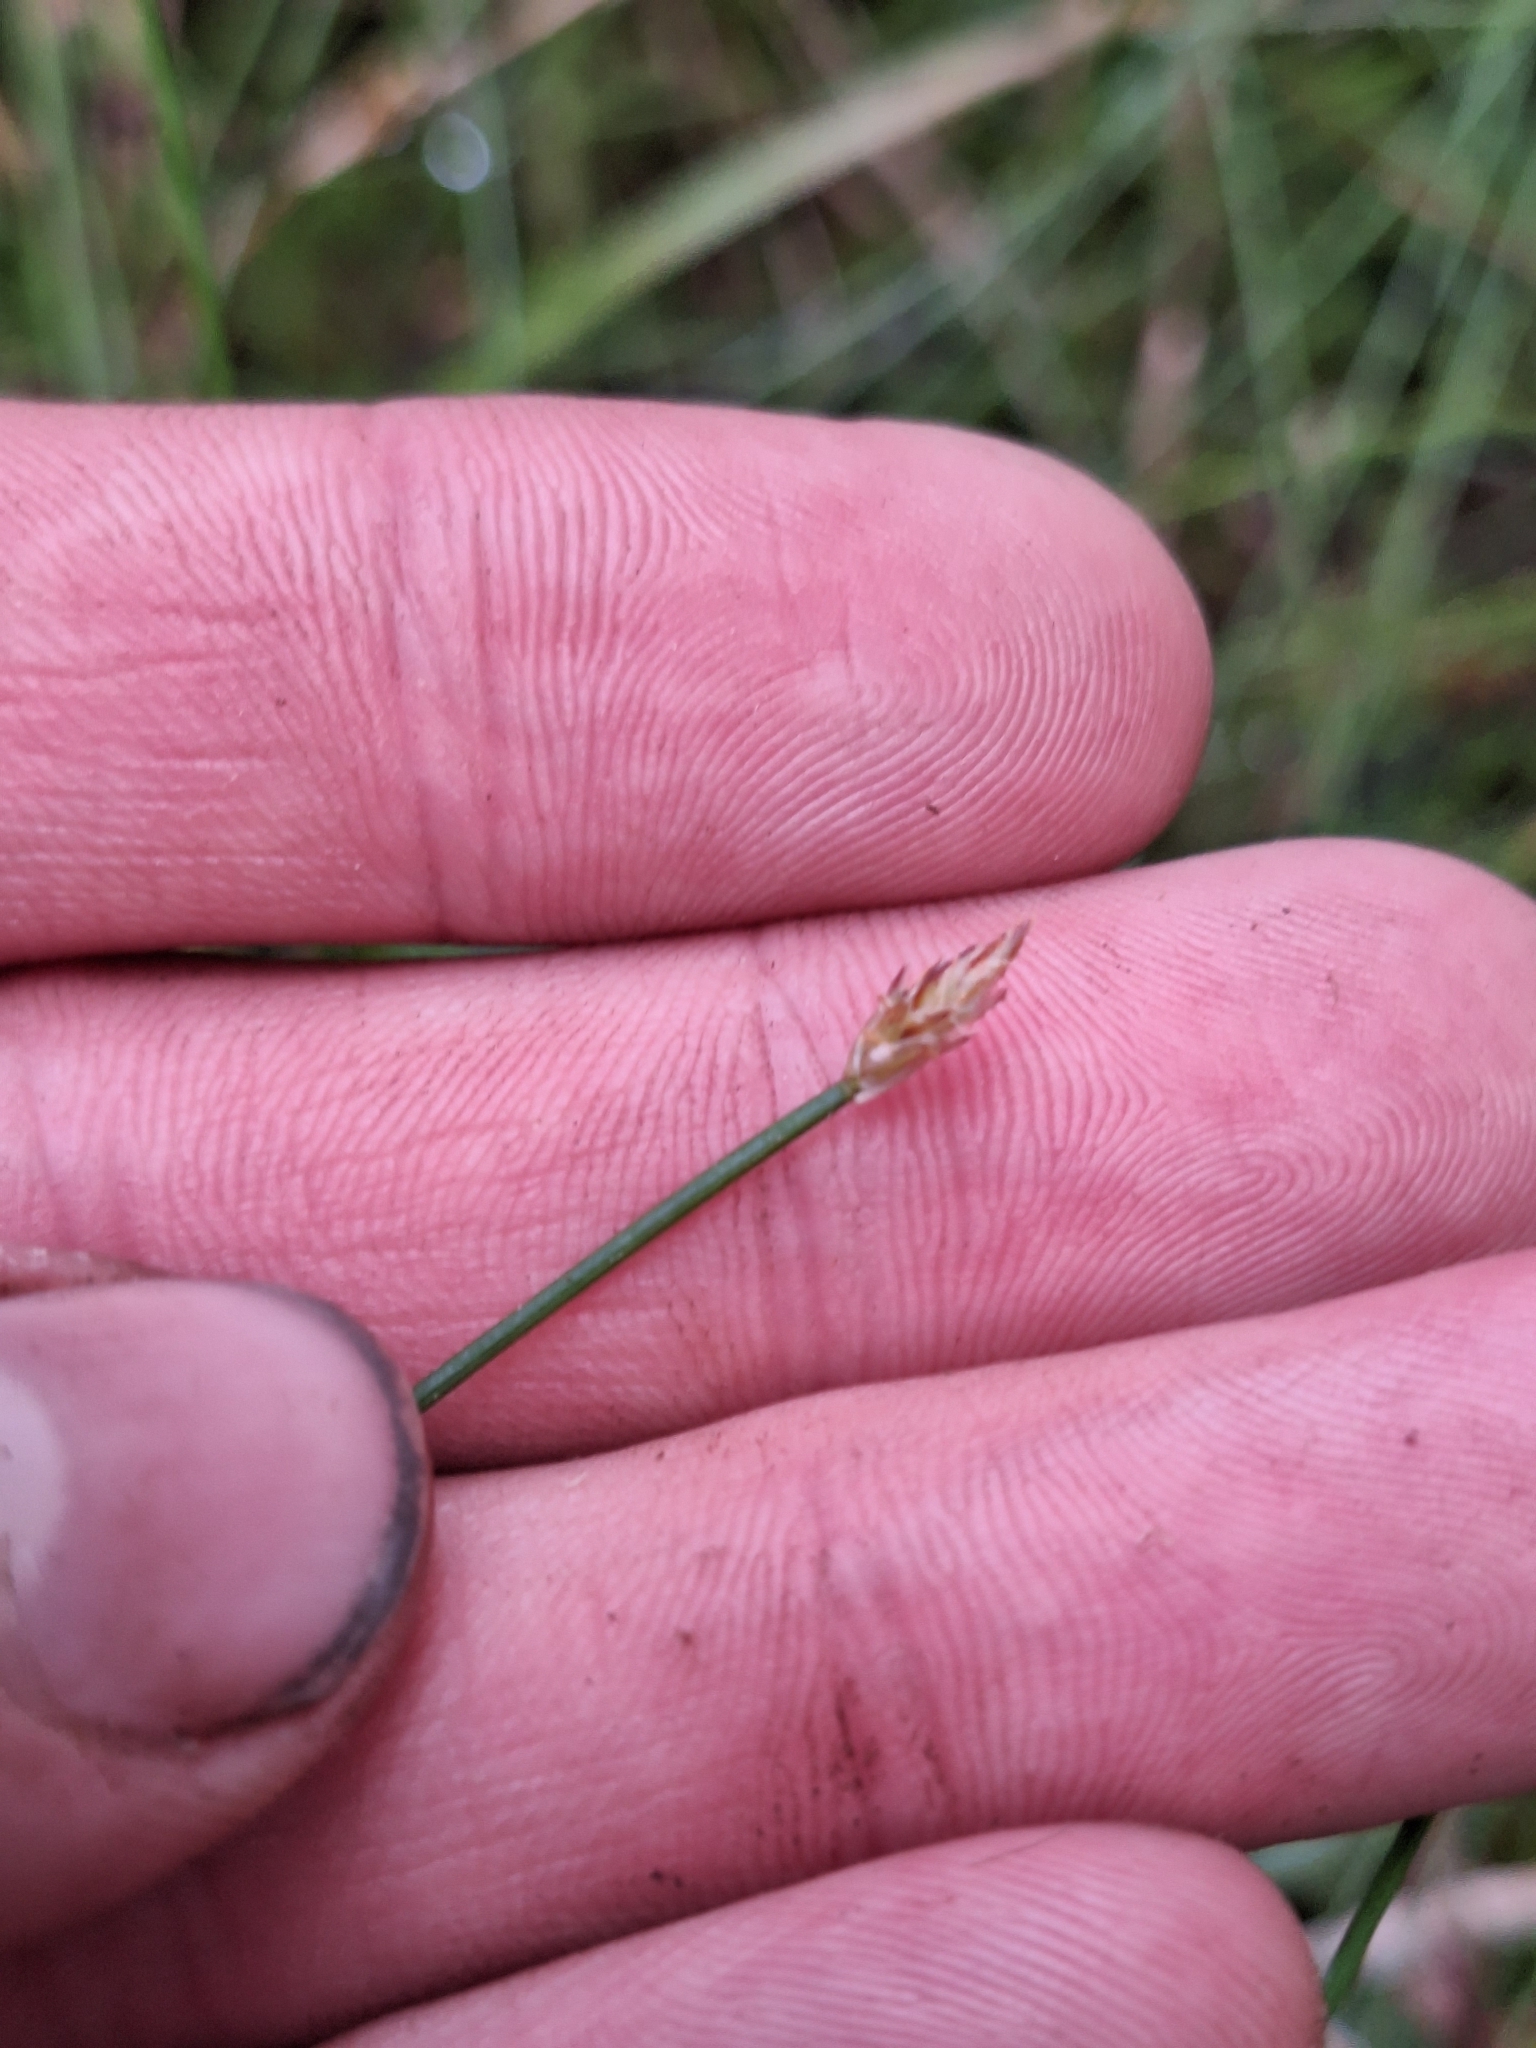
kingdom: Plantae
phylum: Tracheophyta
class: Liliopsida
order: Poales
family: Cyperaceae
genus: Eleocharis
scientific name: Eleocharis acuta
